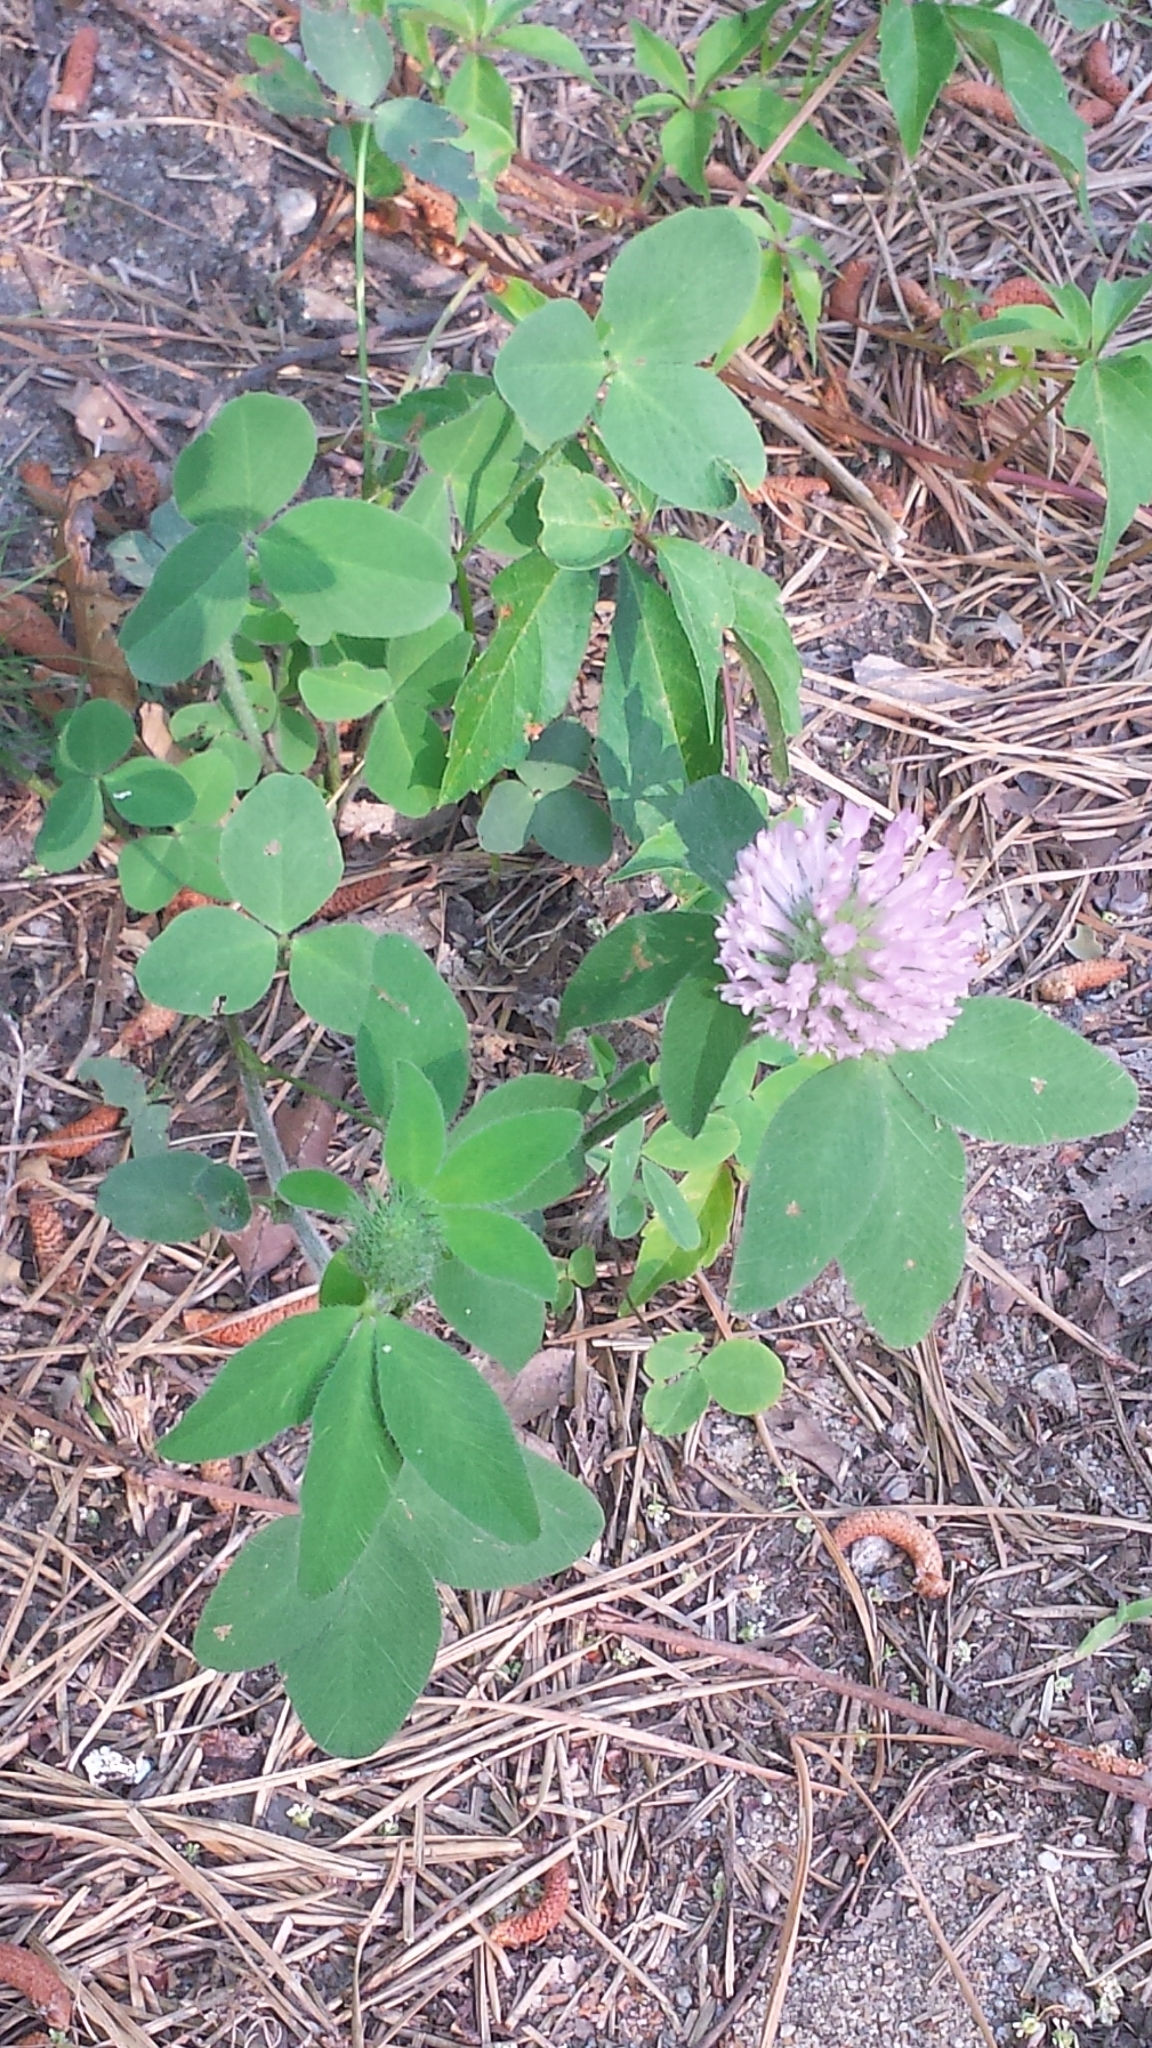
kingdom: Plantae
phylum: Tracheophyta
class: Magnoliopsida
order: Fabales
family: Fabaceae
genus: Trifolium
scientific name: Trifolium pratense
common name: Red clover
